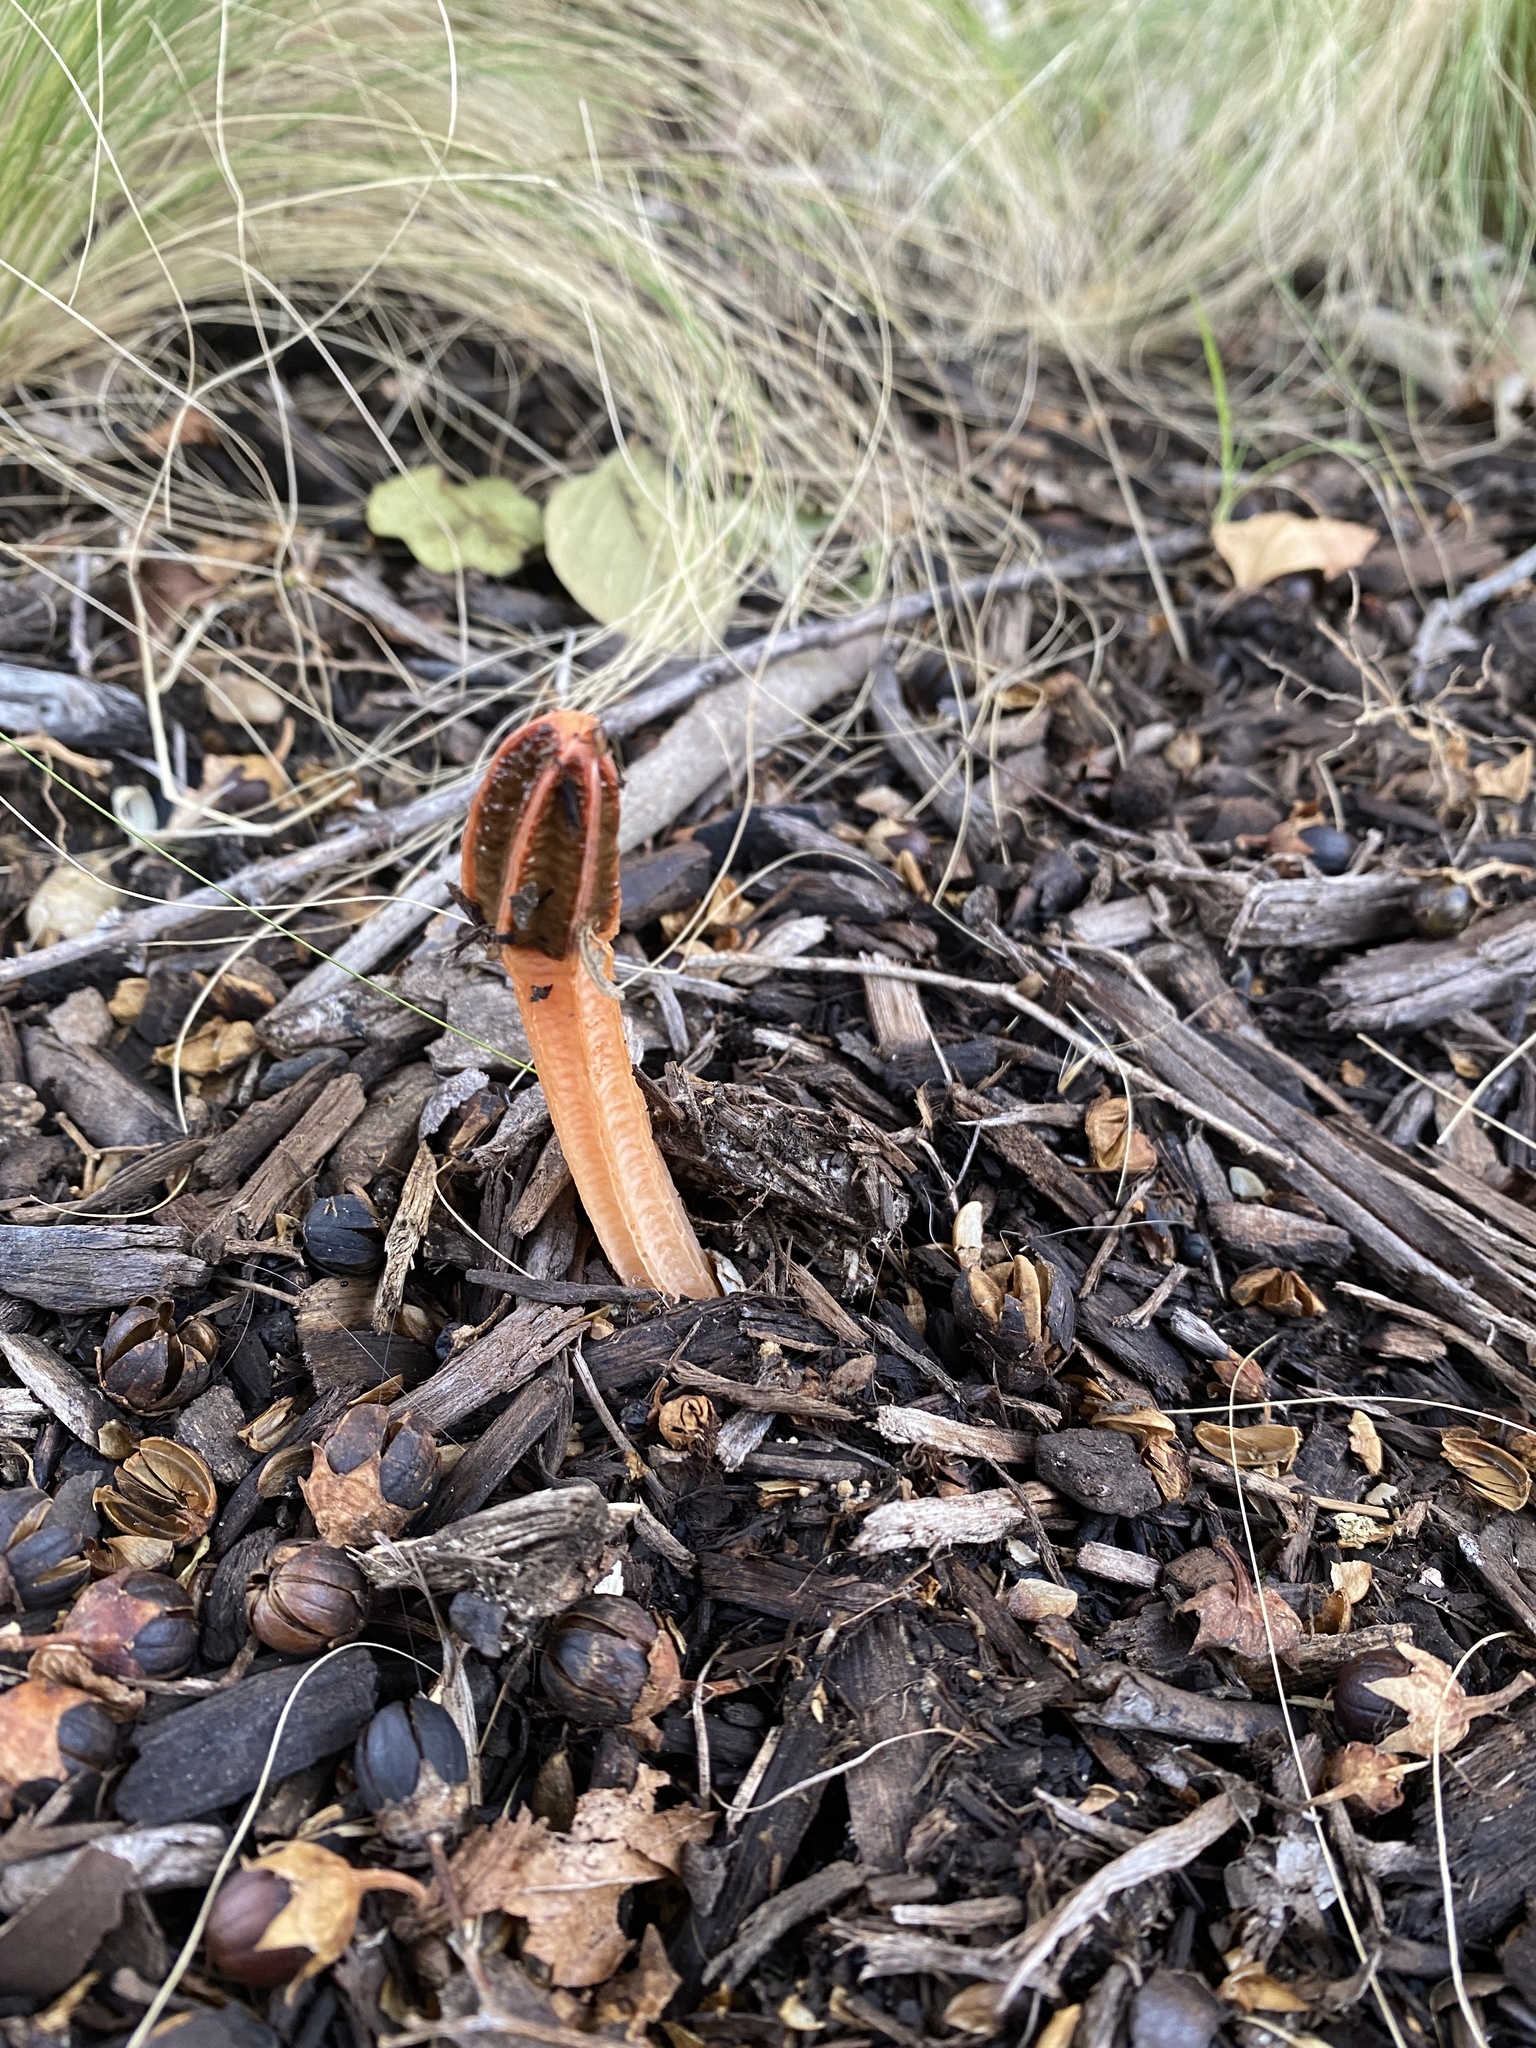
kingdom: Fungi
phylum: Basidiomycota
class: Agaricomycetes
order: Phallales
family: Phallaceae
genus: Lysurus
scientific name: Lysurus mokusin
